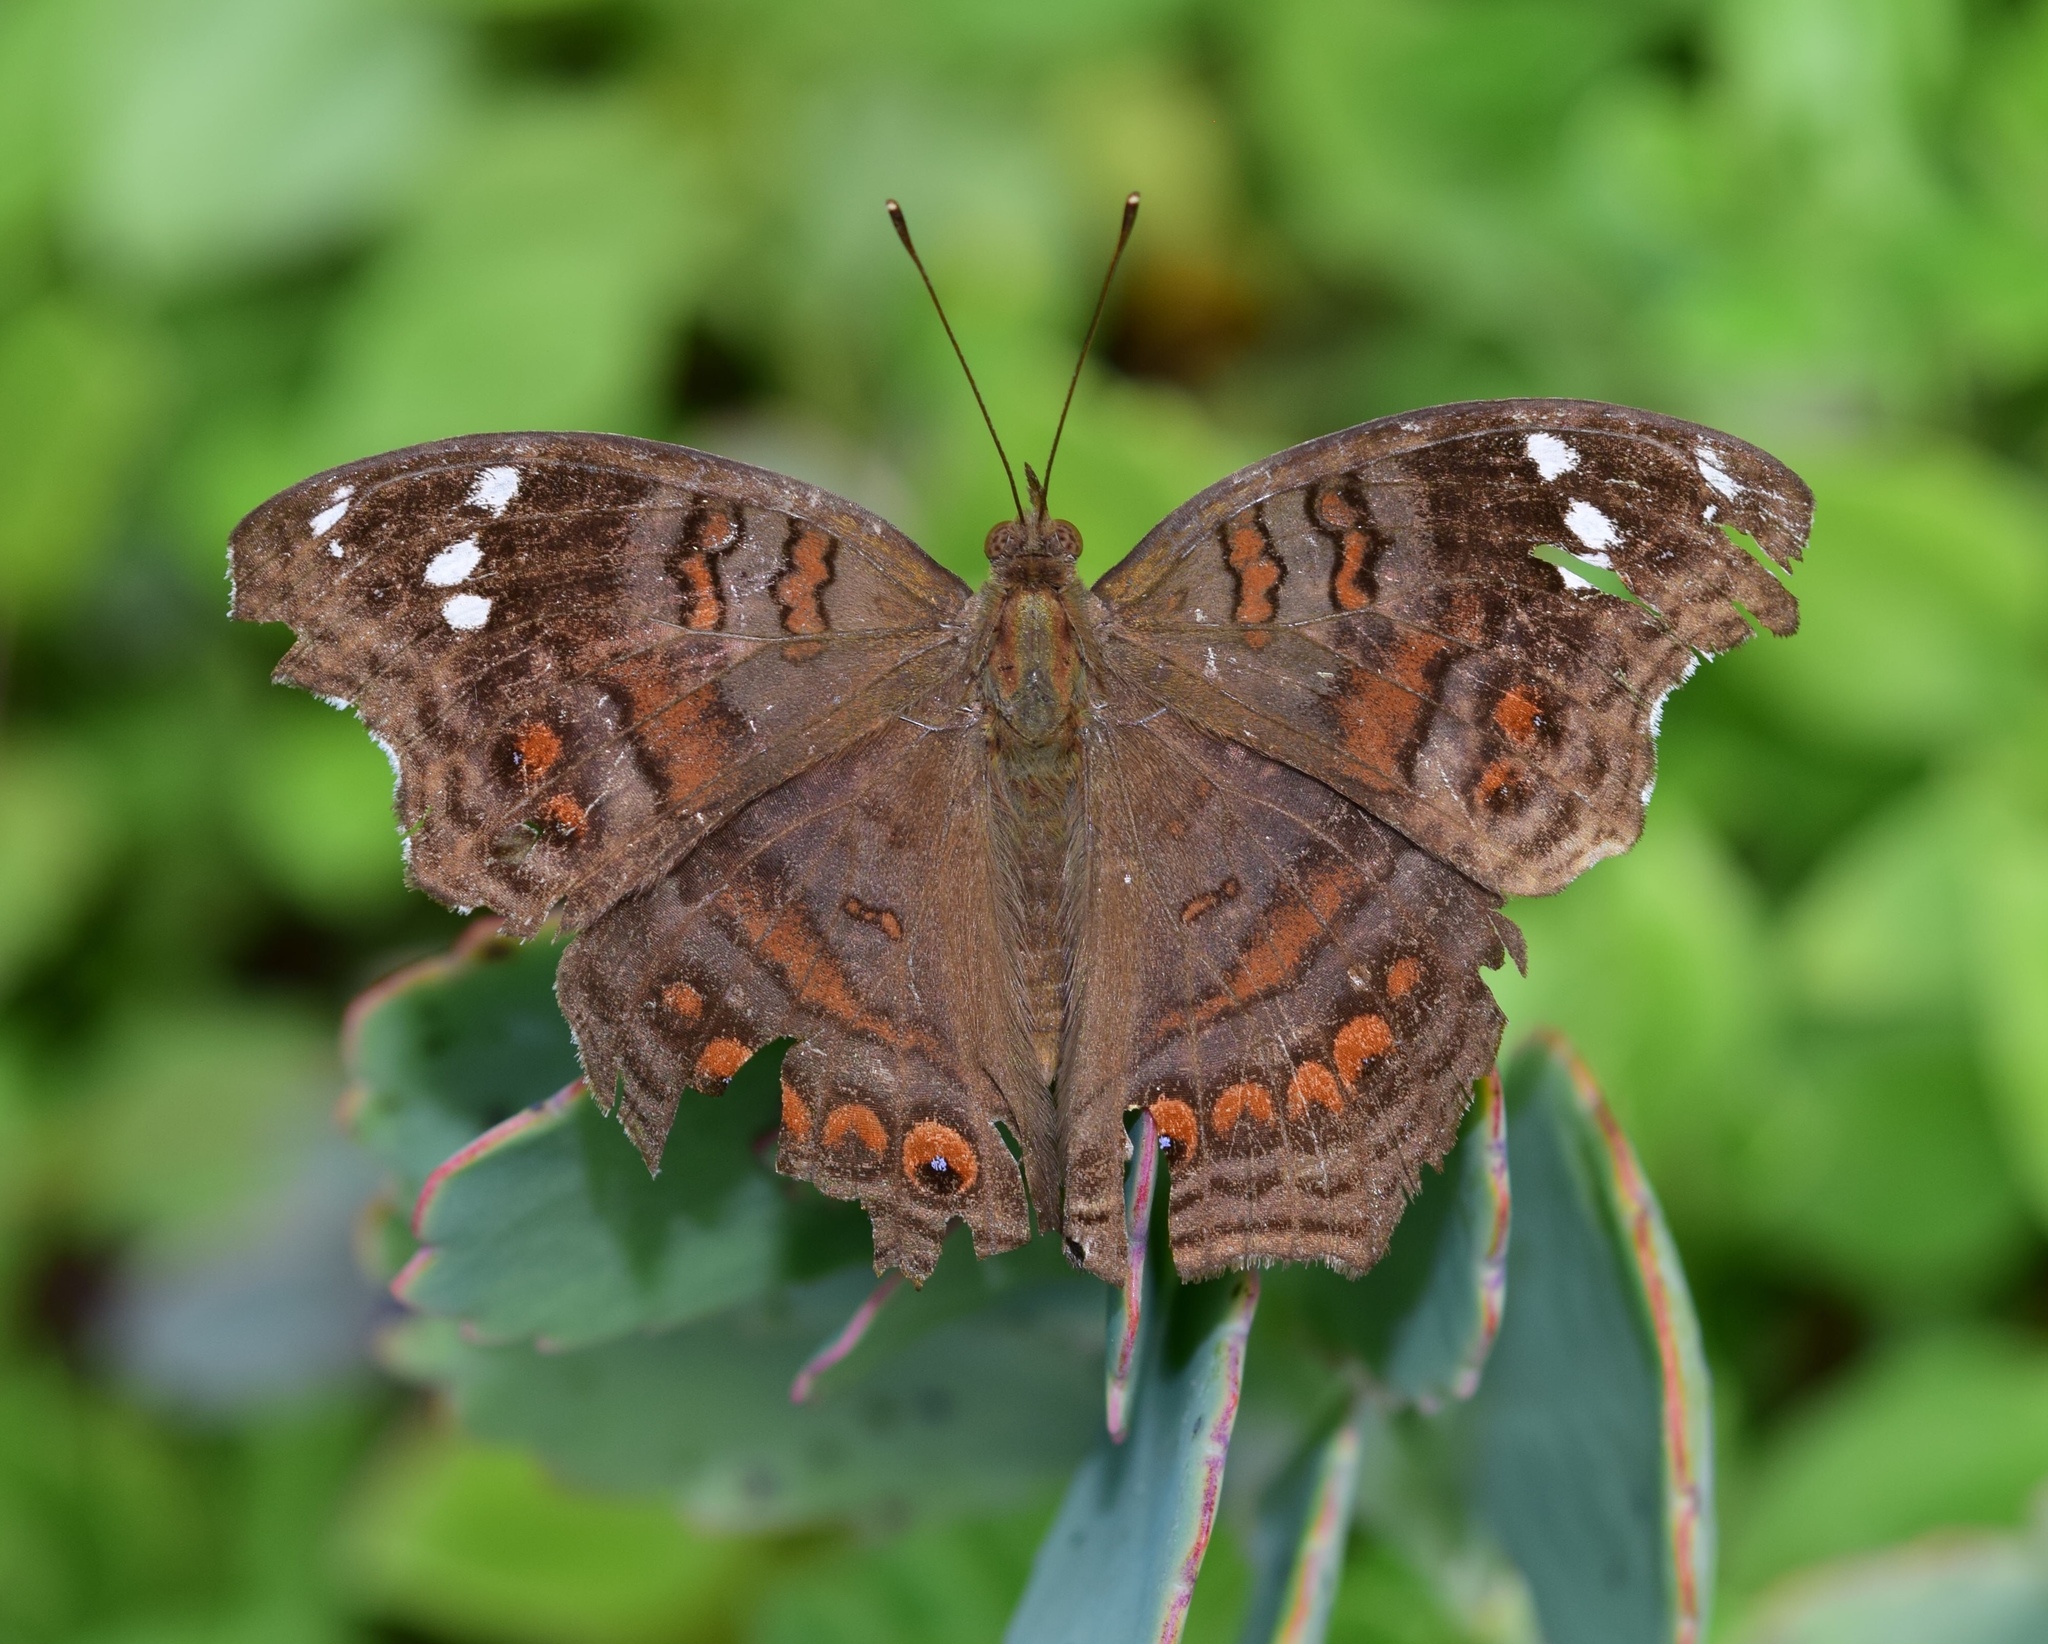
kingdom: Animalia
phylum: Arthropoda
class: Insecta
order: Lepidoptera
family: Nymphalidae
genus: Junonia
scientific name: Junonia natalica
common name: Brown pansy
